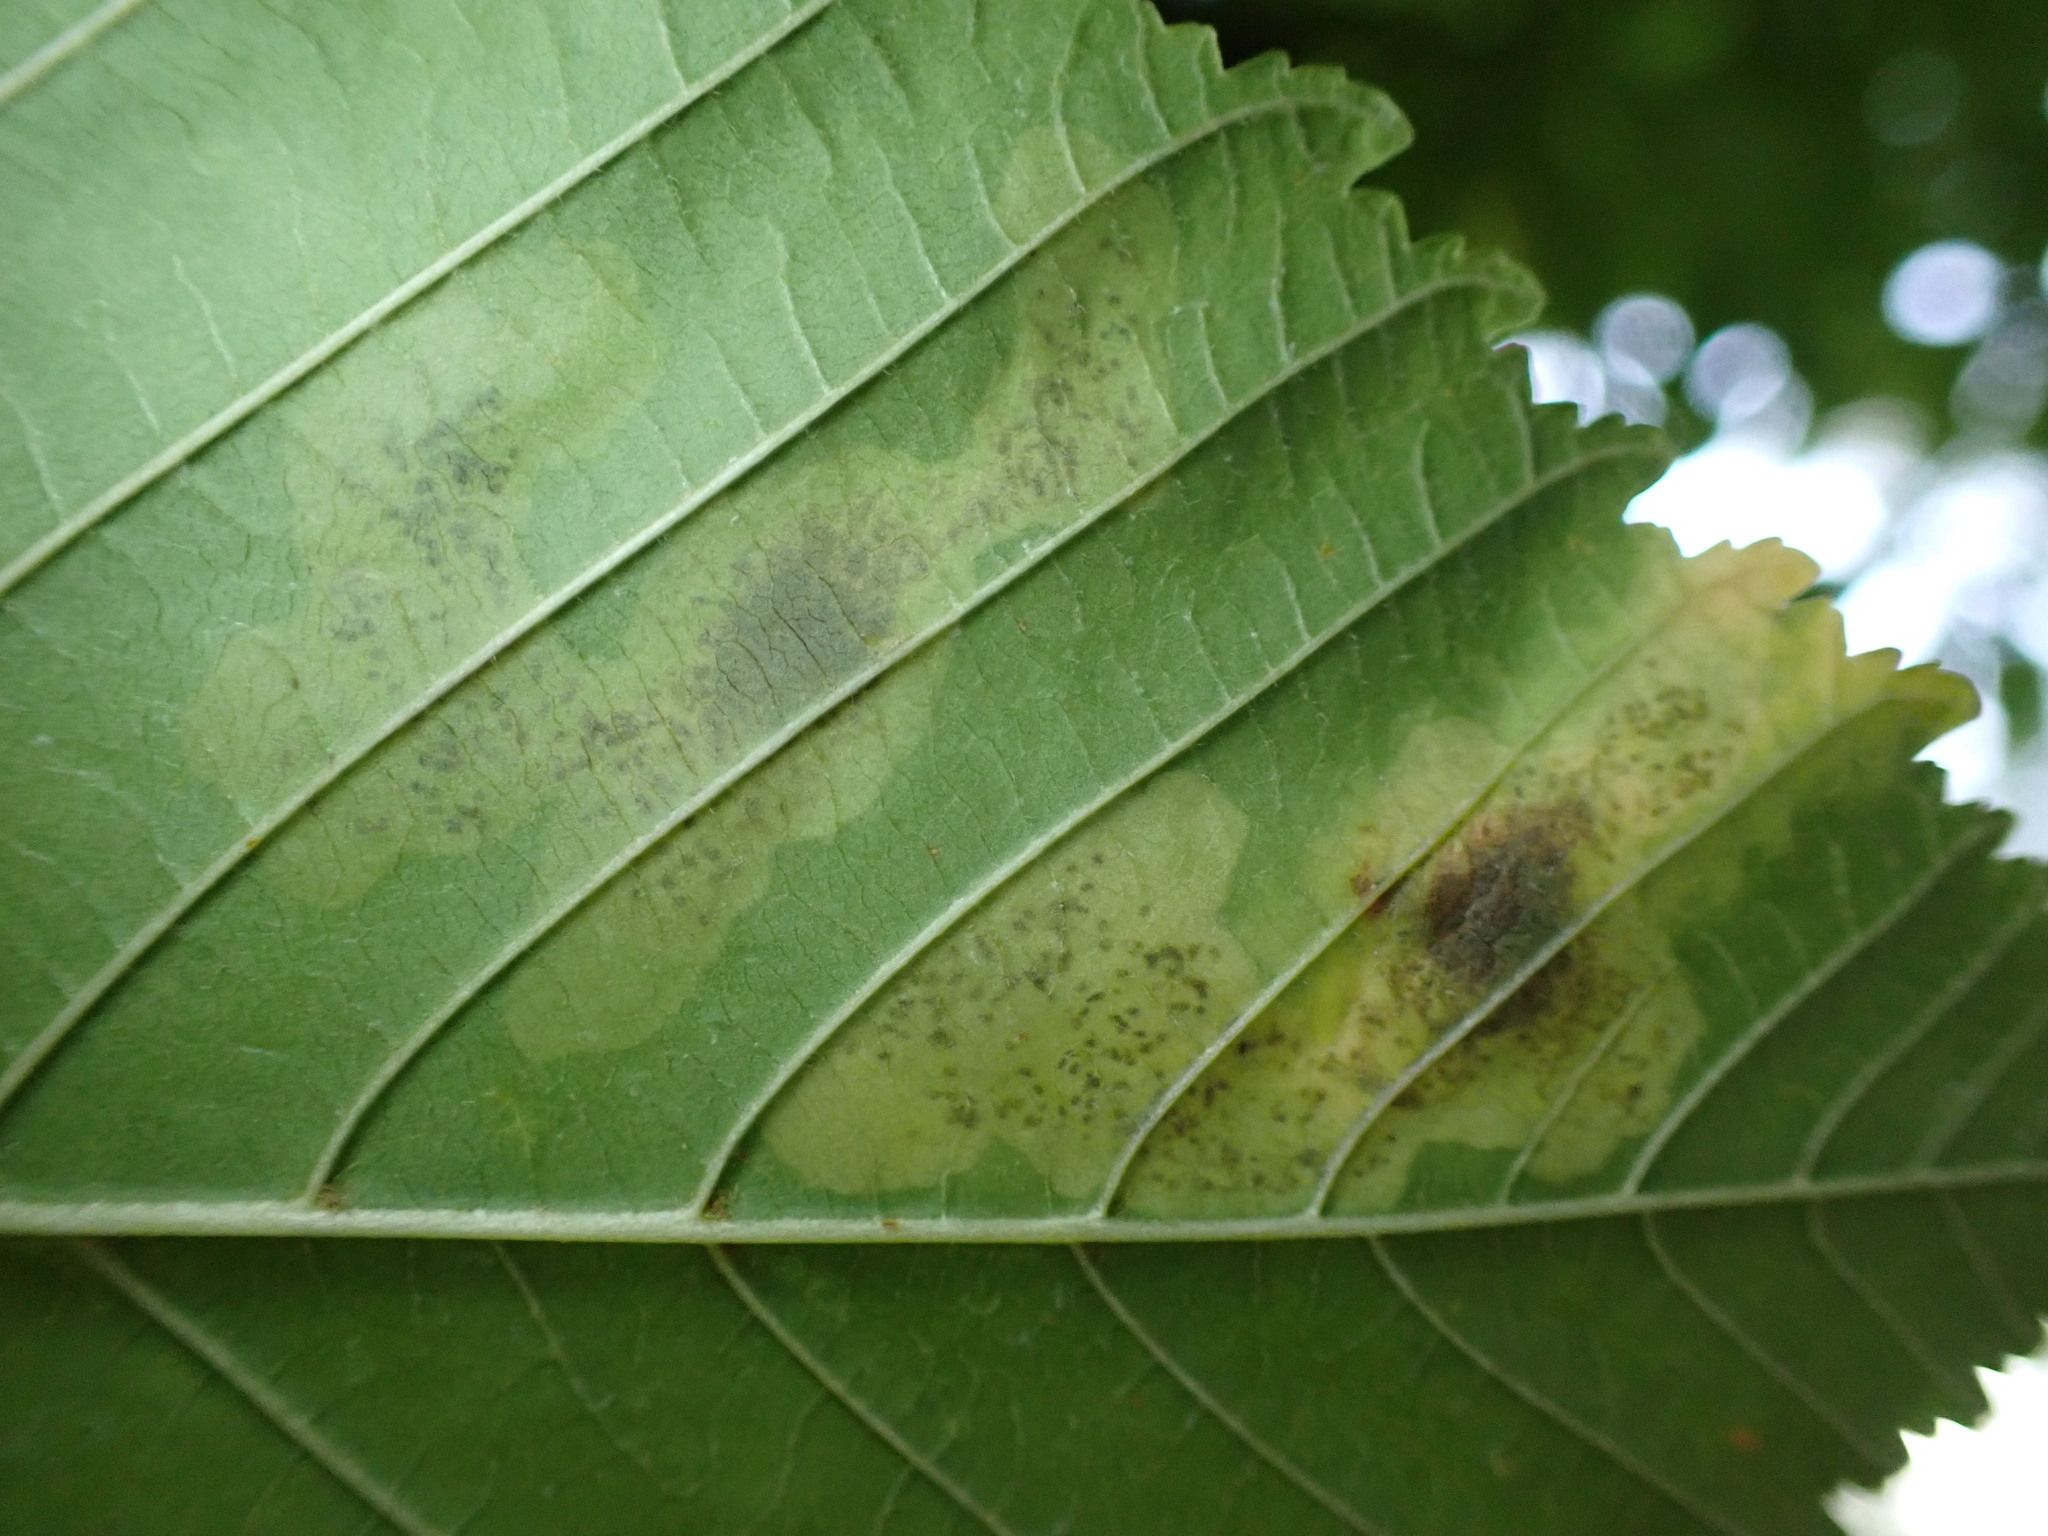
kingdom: Animalia
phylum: Arthropoda
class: Insecta
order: Lepidoptera
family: Gracillariidae
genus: Cameraria
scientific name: Cameraria ohridella
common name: Horse-chestnut leaf-miner
